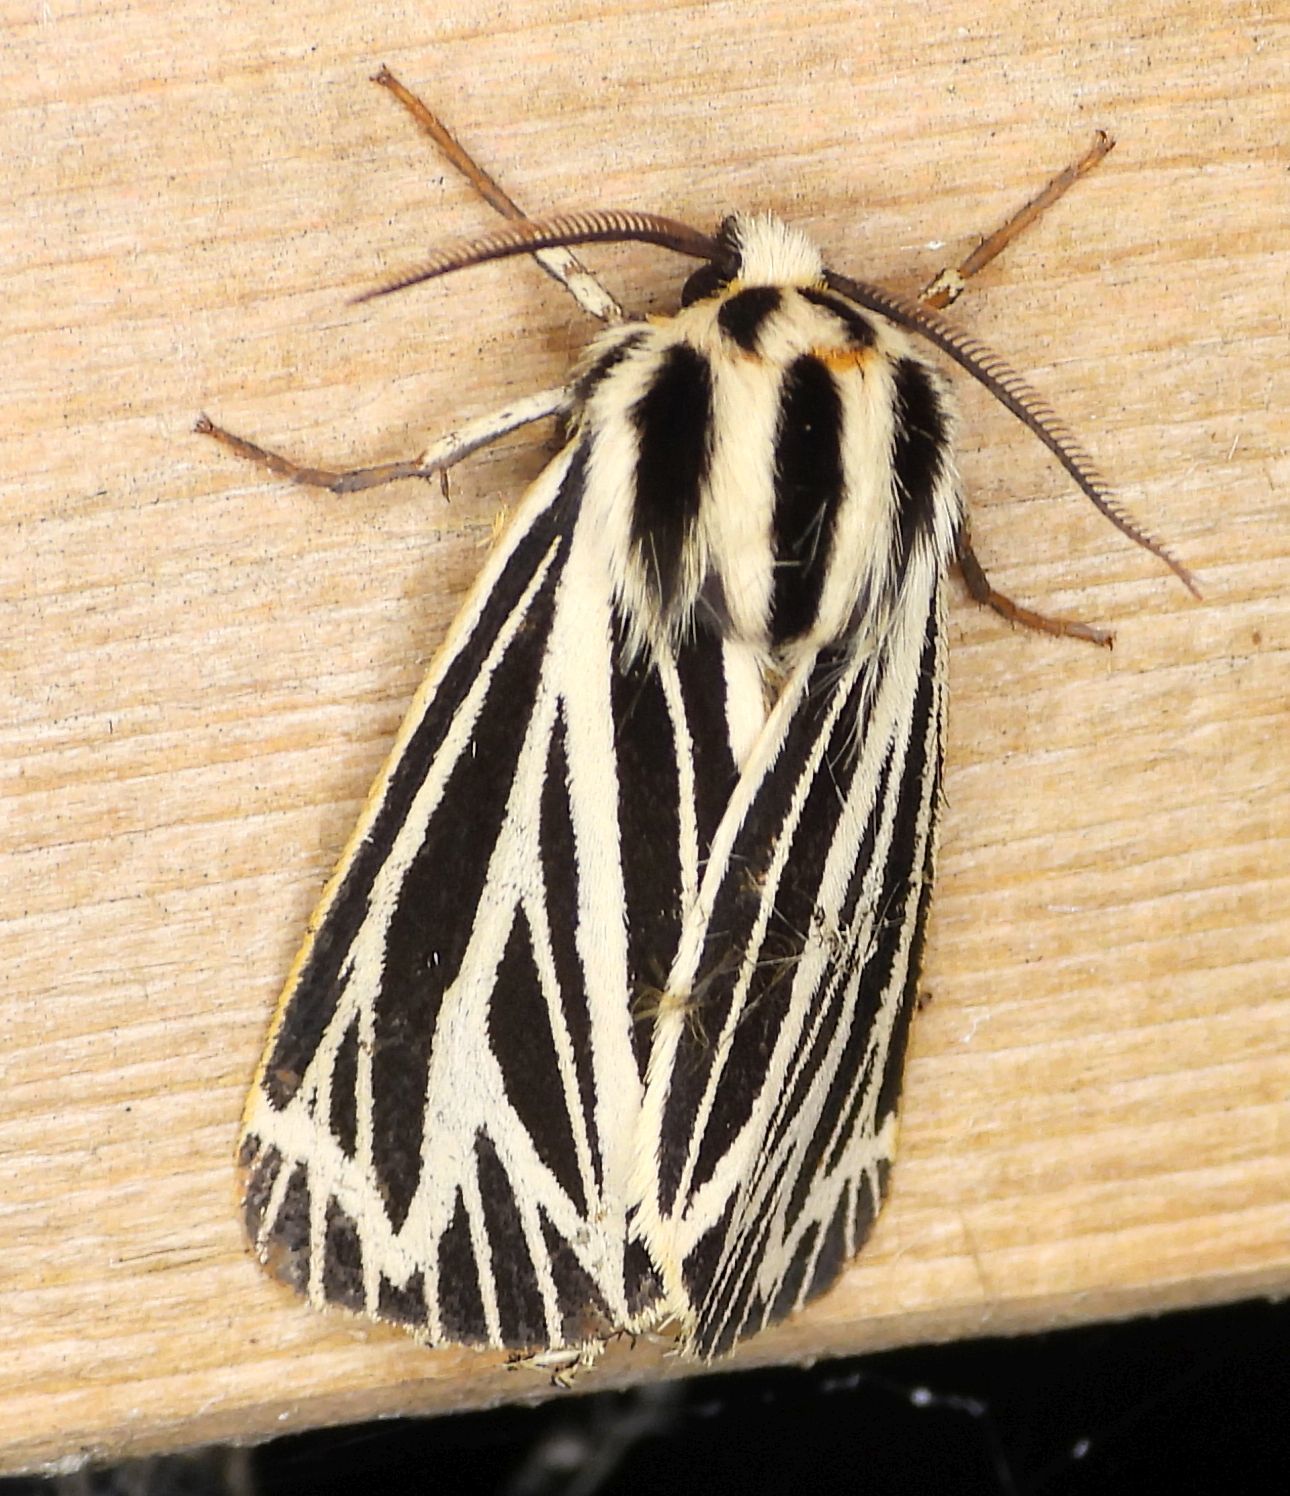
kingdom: Animalia
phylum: Arthropoda
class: Insecta
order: Lepidoptera
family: Erebidae
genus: Grammia
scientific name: Grammia virguncula
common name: Little tiger moth
